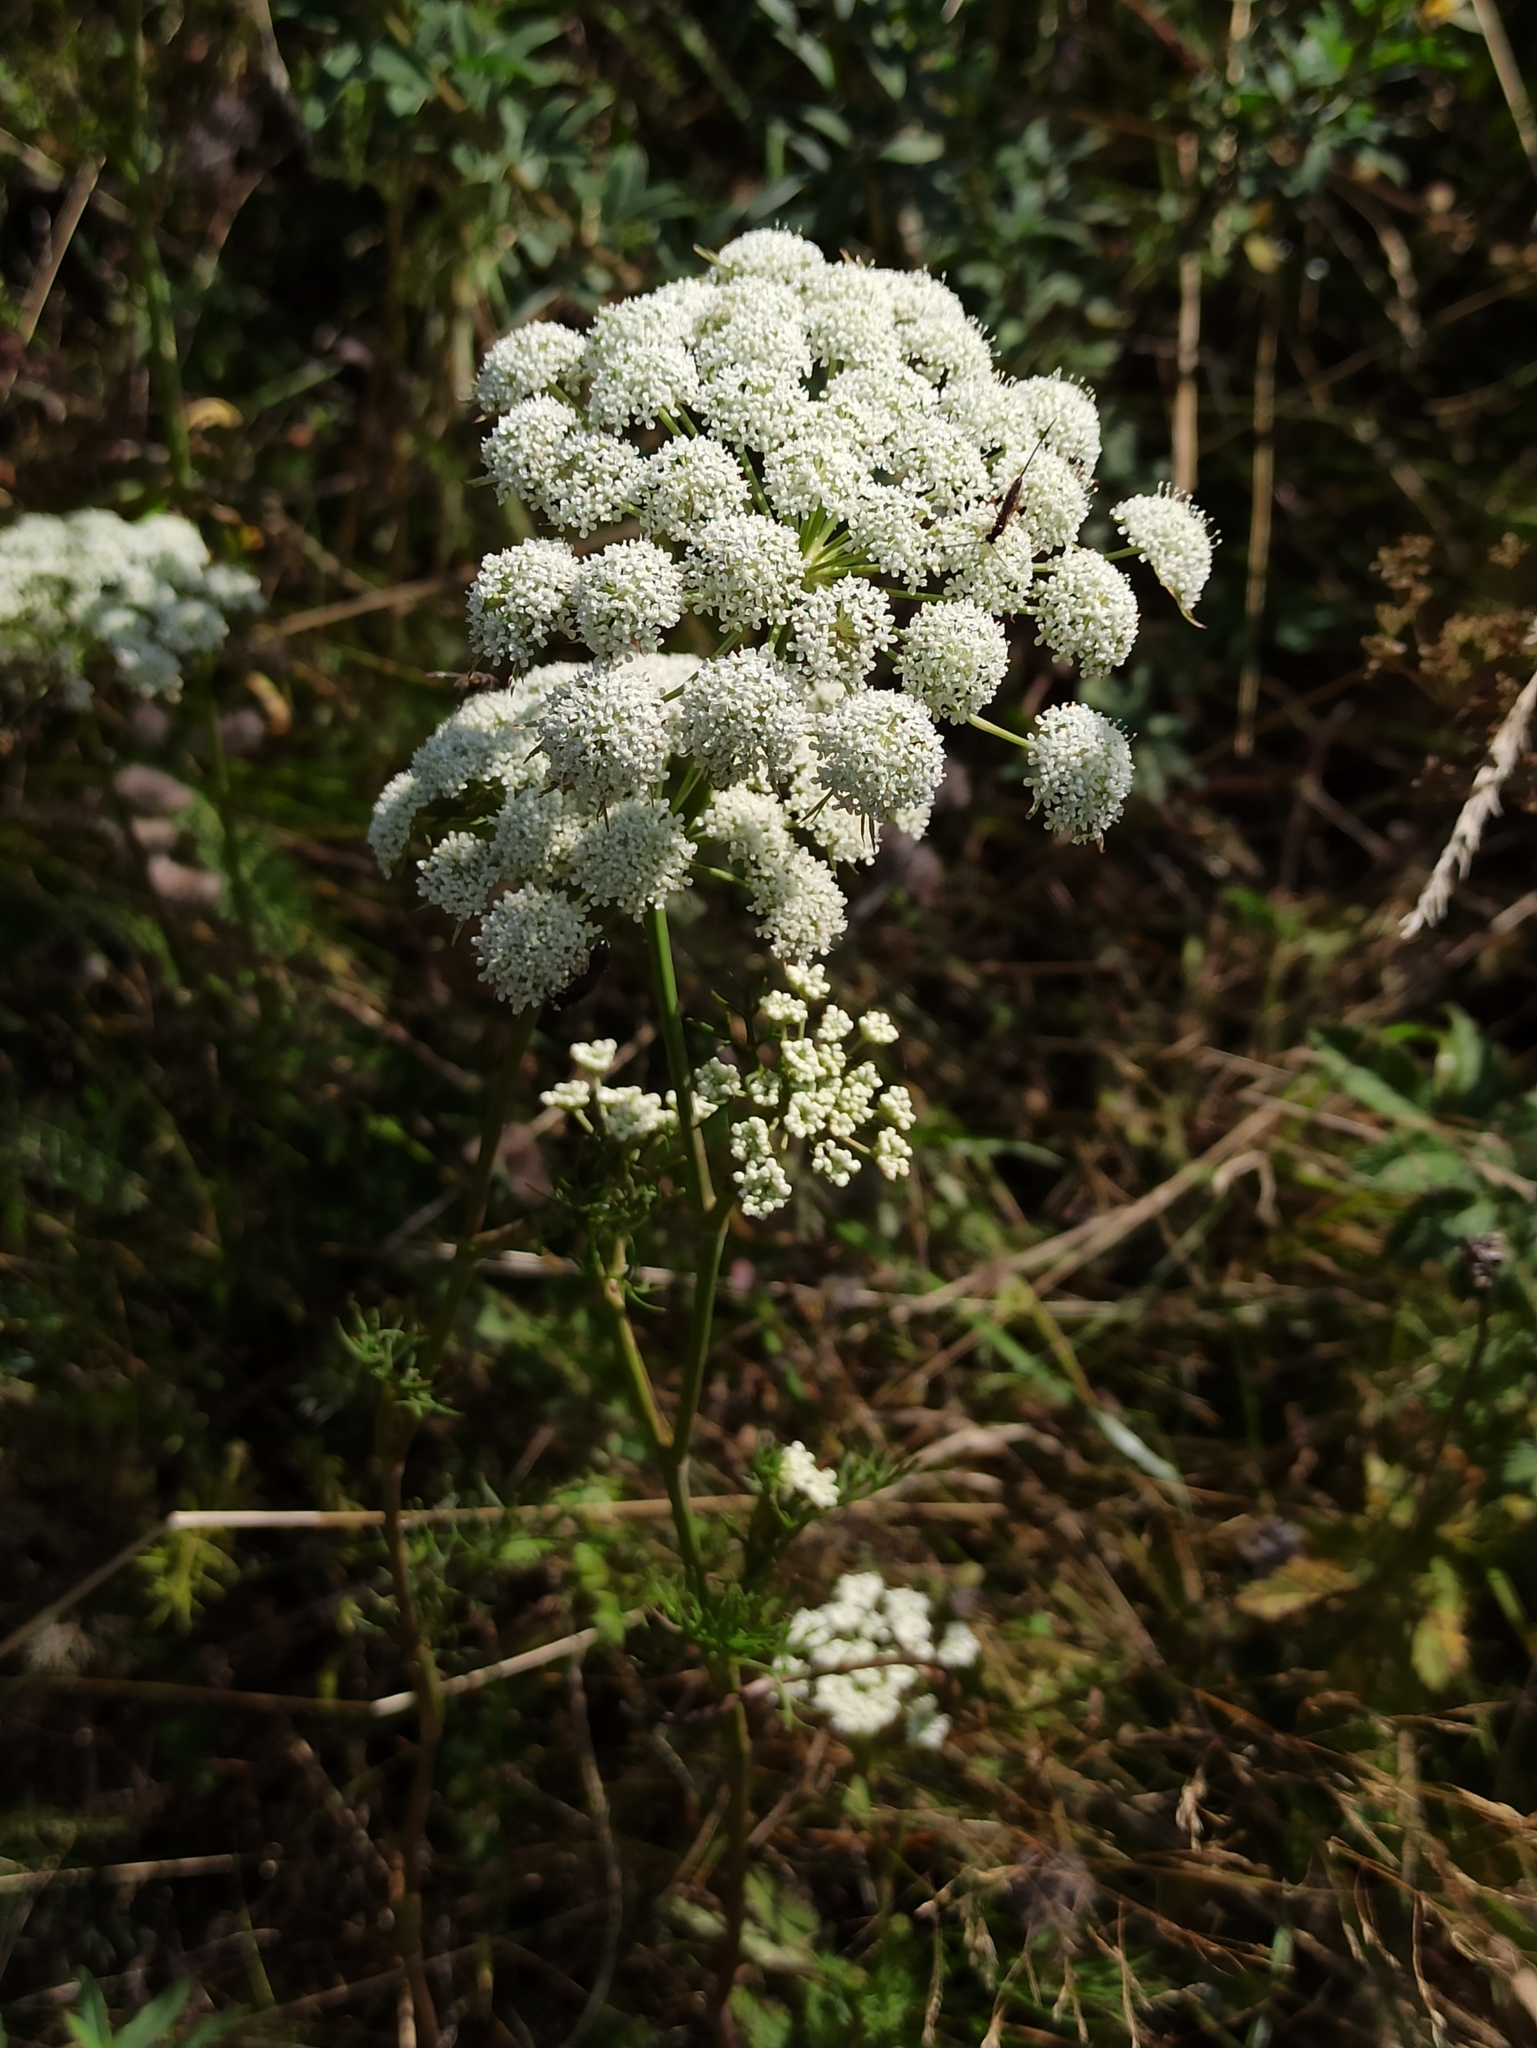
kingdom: Plantae
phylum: Tracheophyta
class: Magnoliopsida
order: Apiales
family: Apiaceae
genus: Seseli
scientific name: Seseli annuum
